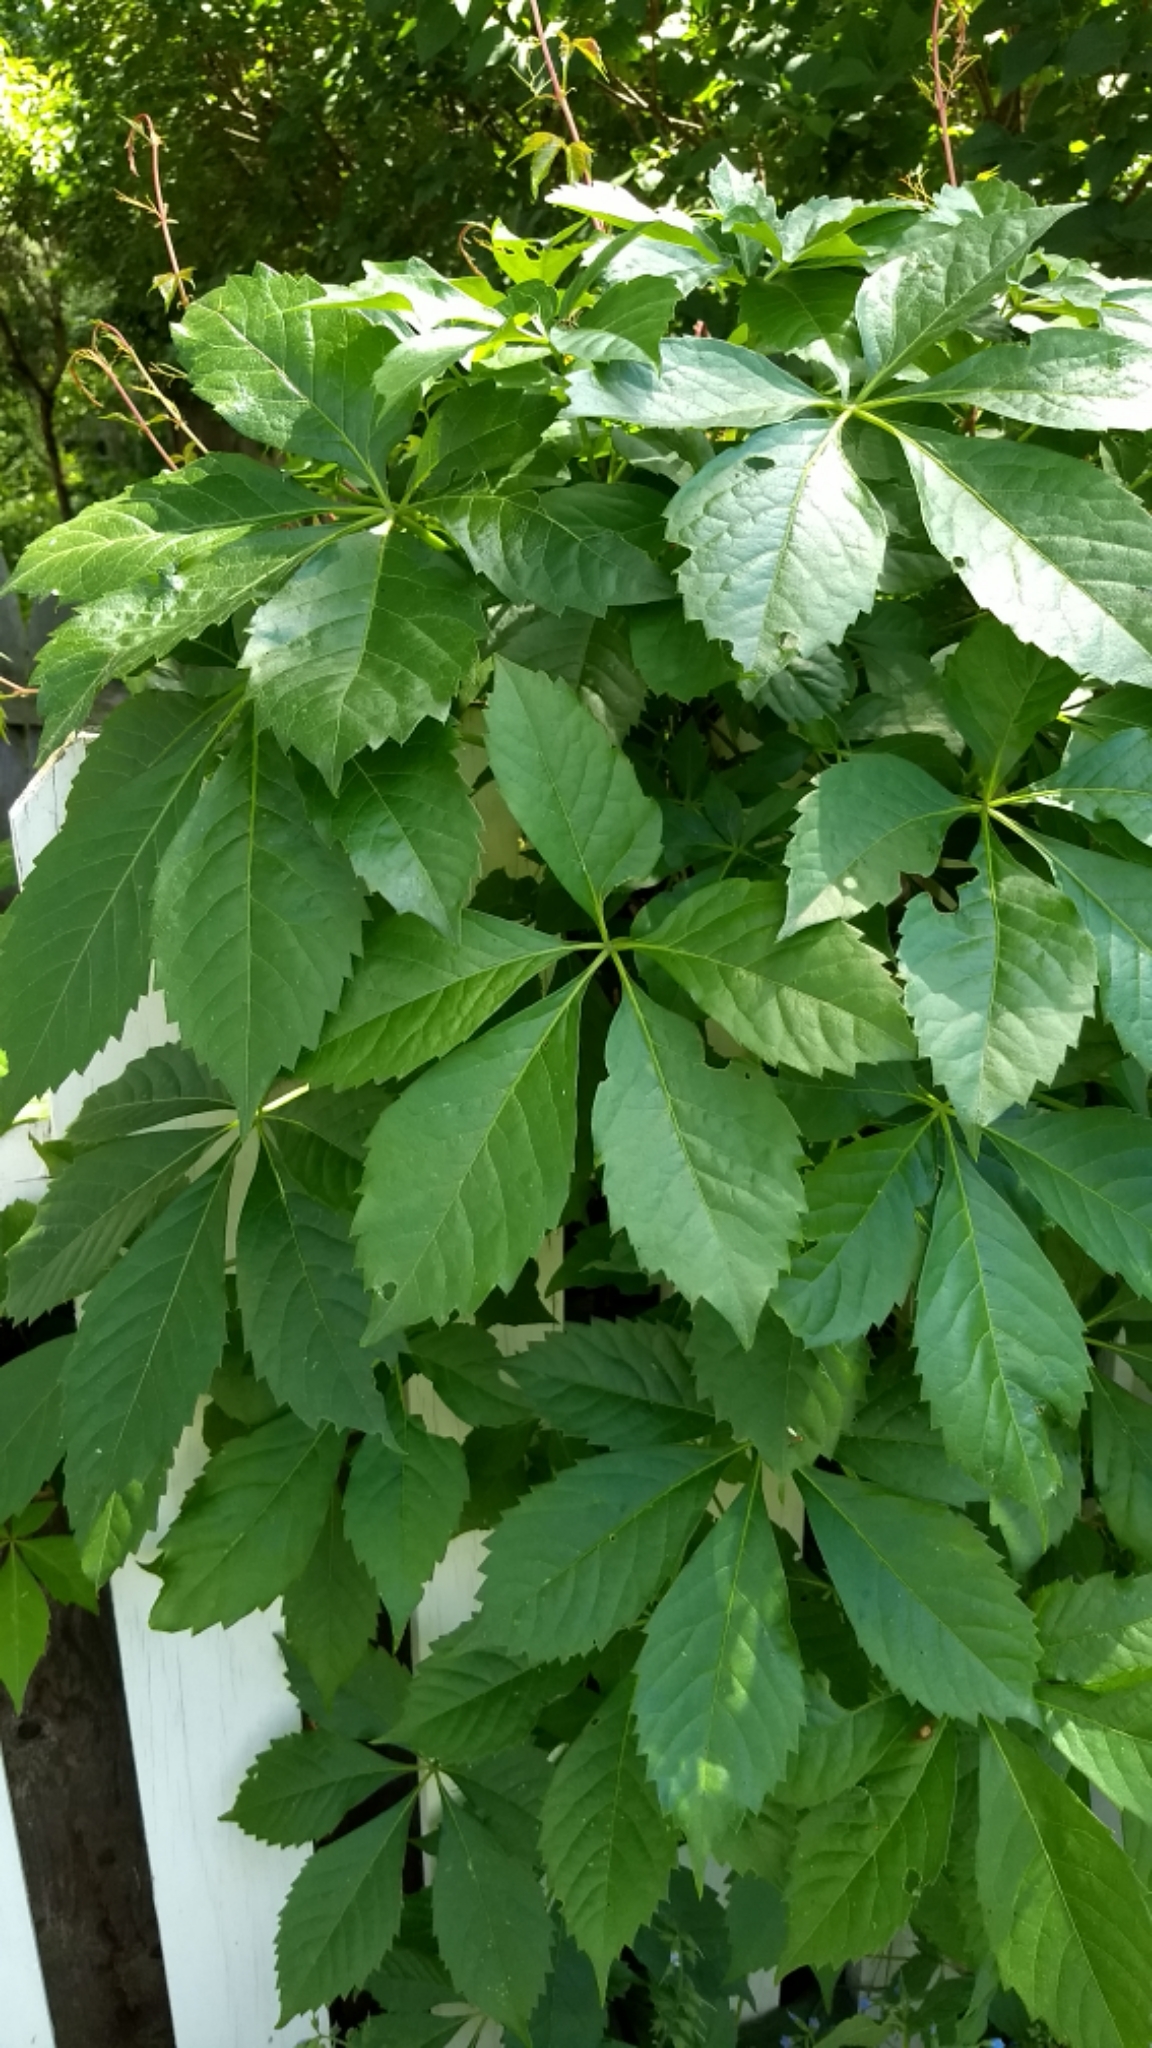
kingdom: Plantae
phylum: Tracheophyta
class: Magnoliopsida
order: Vitales
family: Vitaceae
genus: Parthenocissus
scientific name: Parthenocissus quinquefolia
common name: Virginia-creeper
